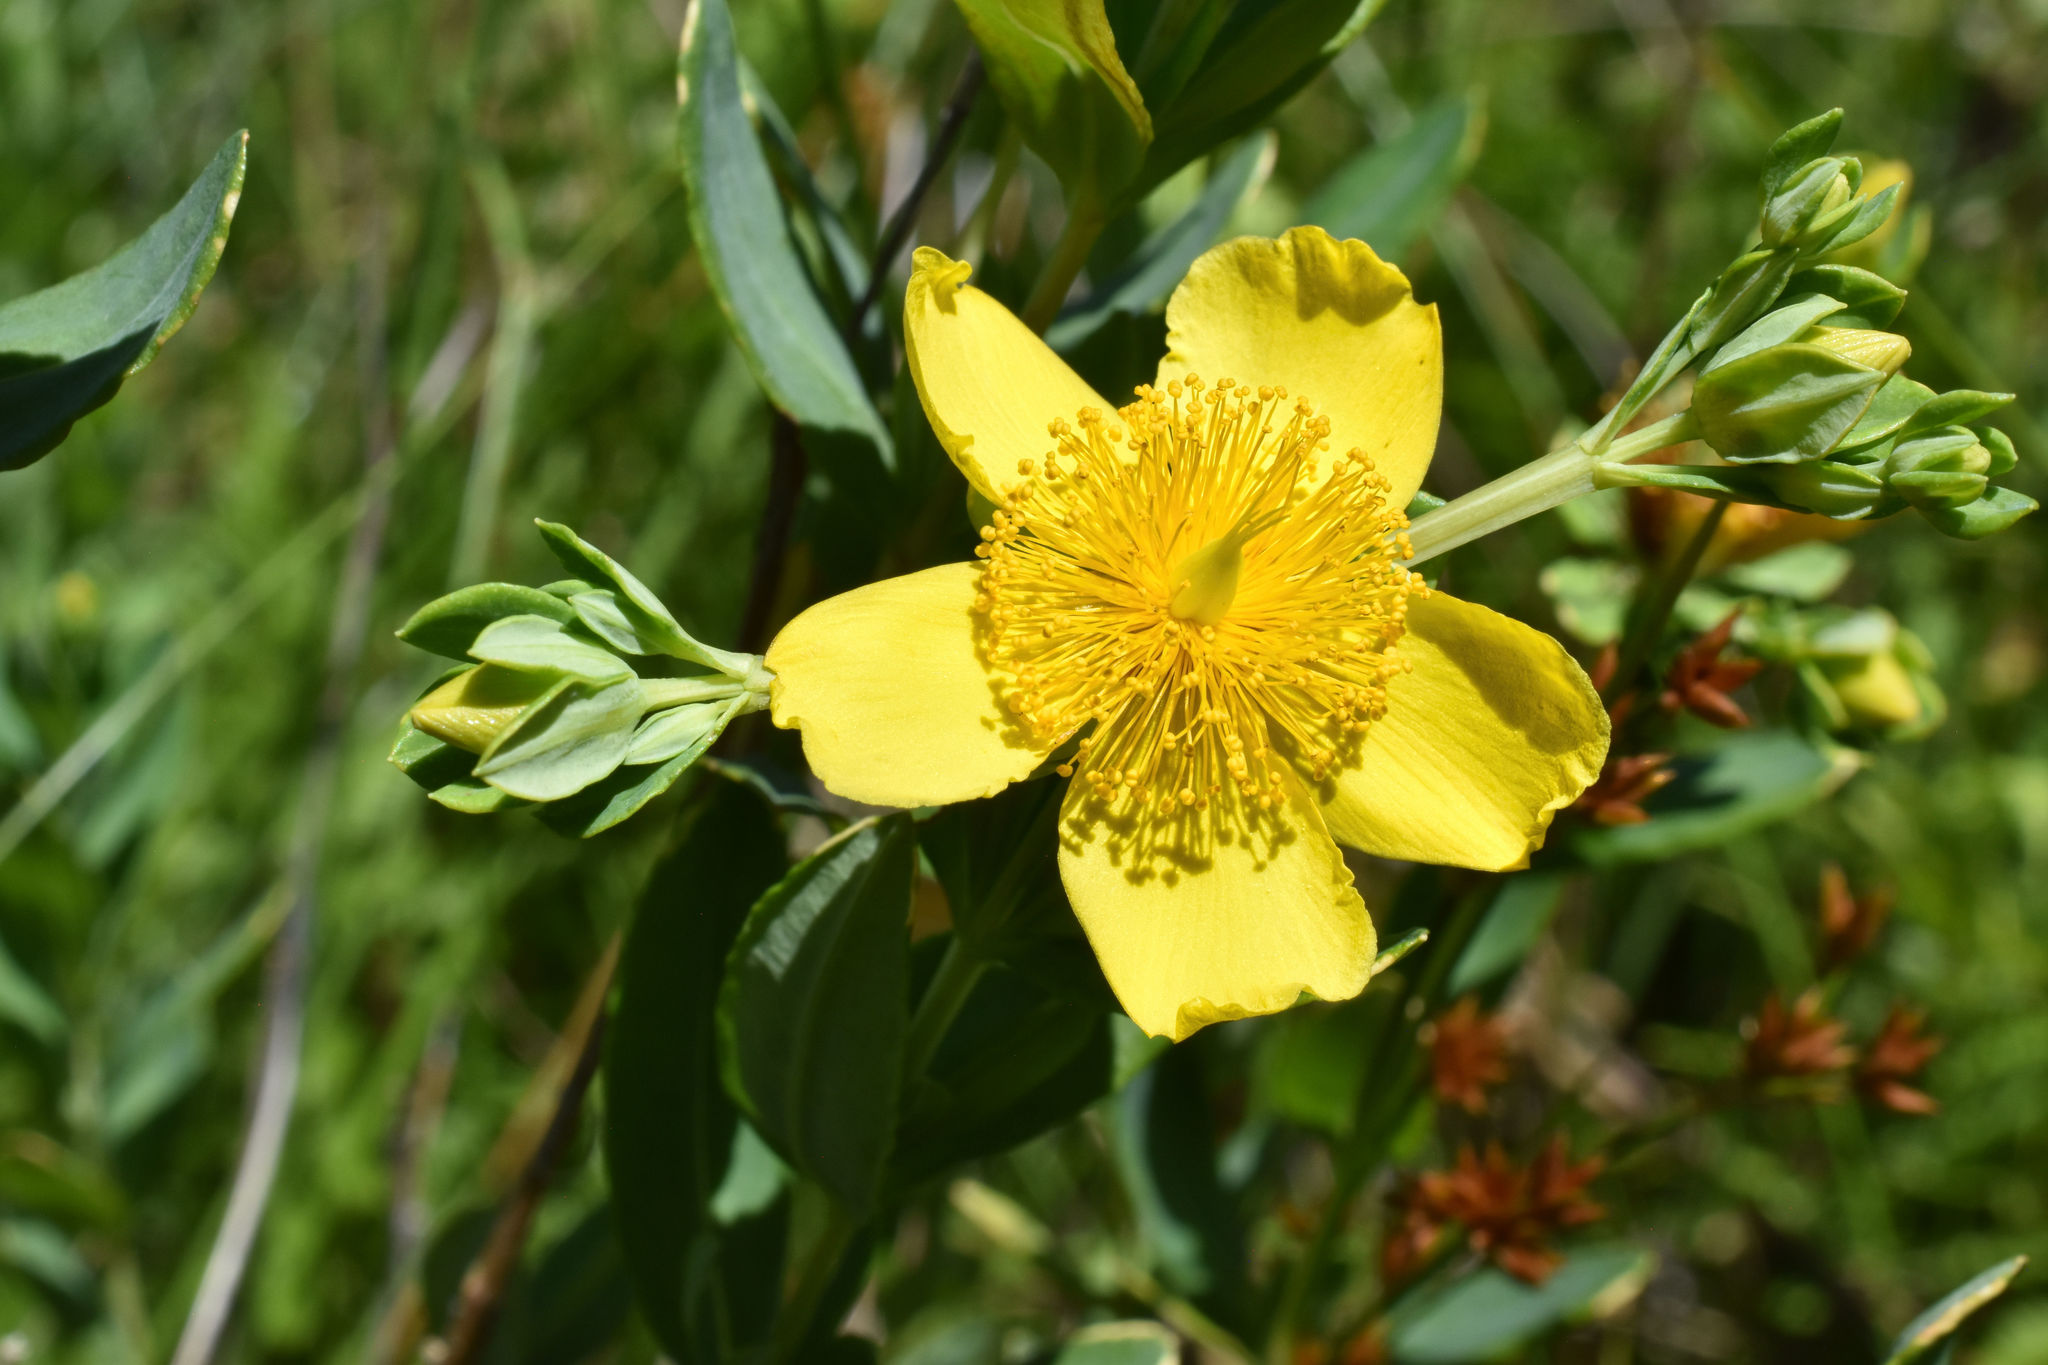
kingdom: Plantae
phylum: Tracheophyta
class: Magnoliopsida
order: Malpighiales
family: Hypericaceae
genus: Hypericum
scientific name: Hypericum kalmianum
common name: Kalm's st. john's-wort
